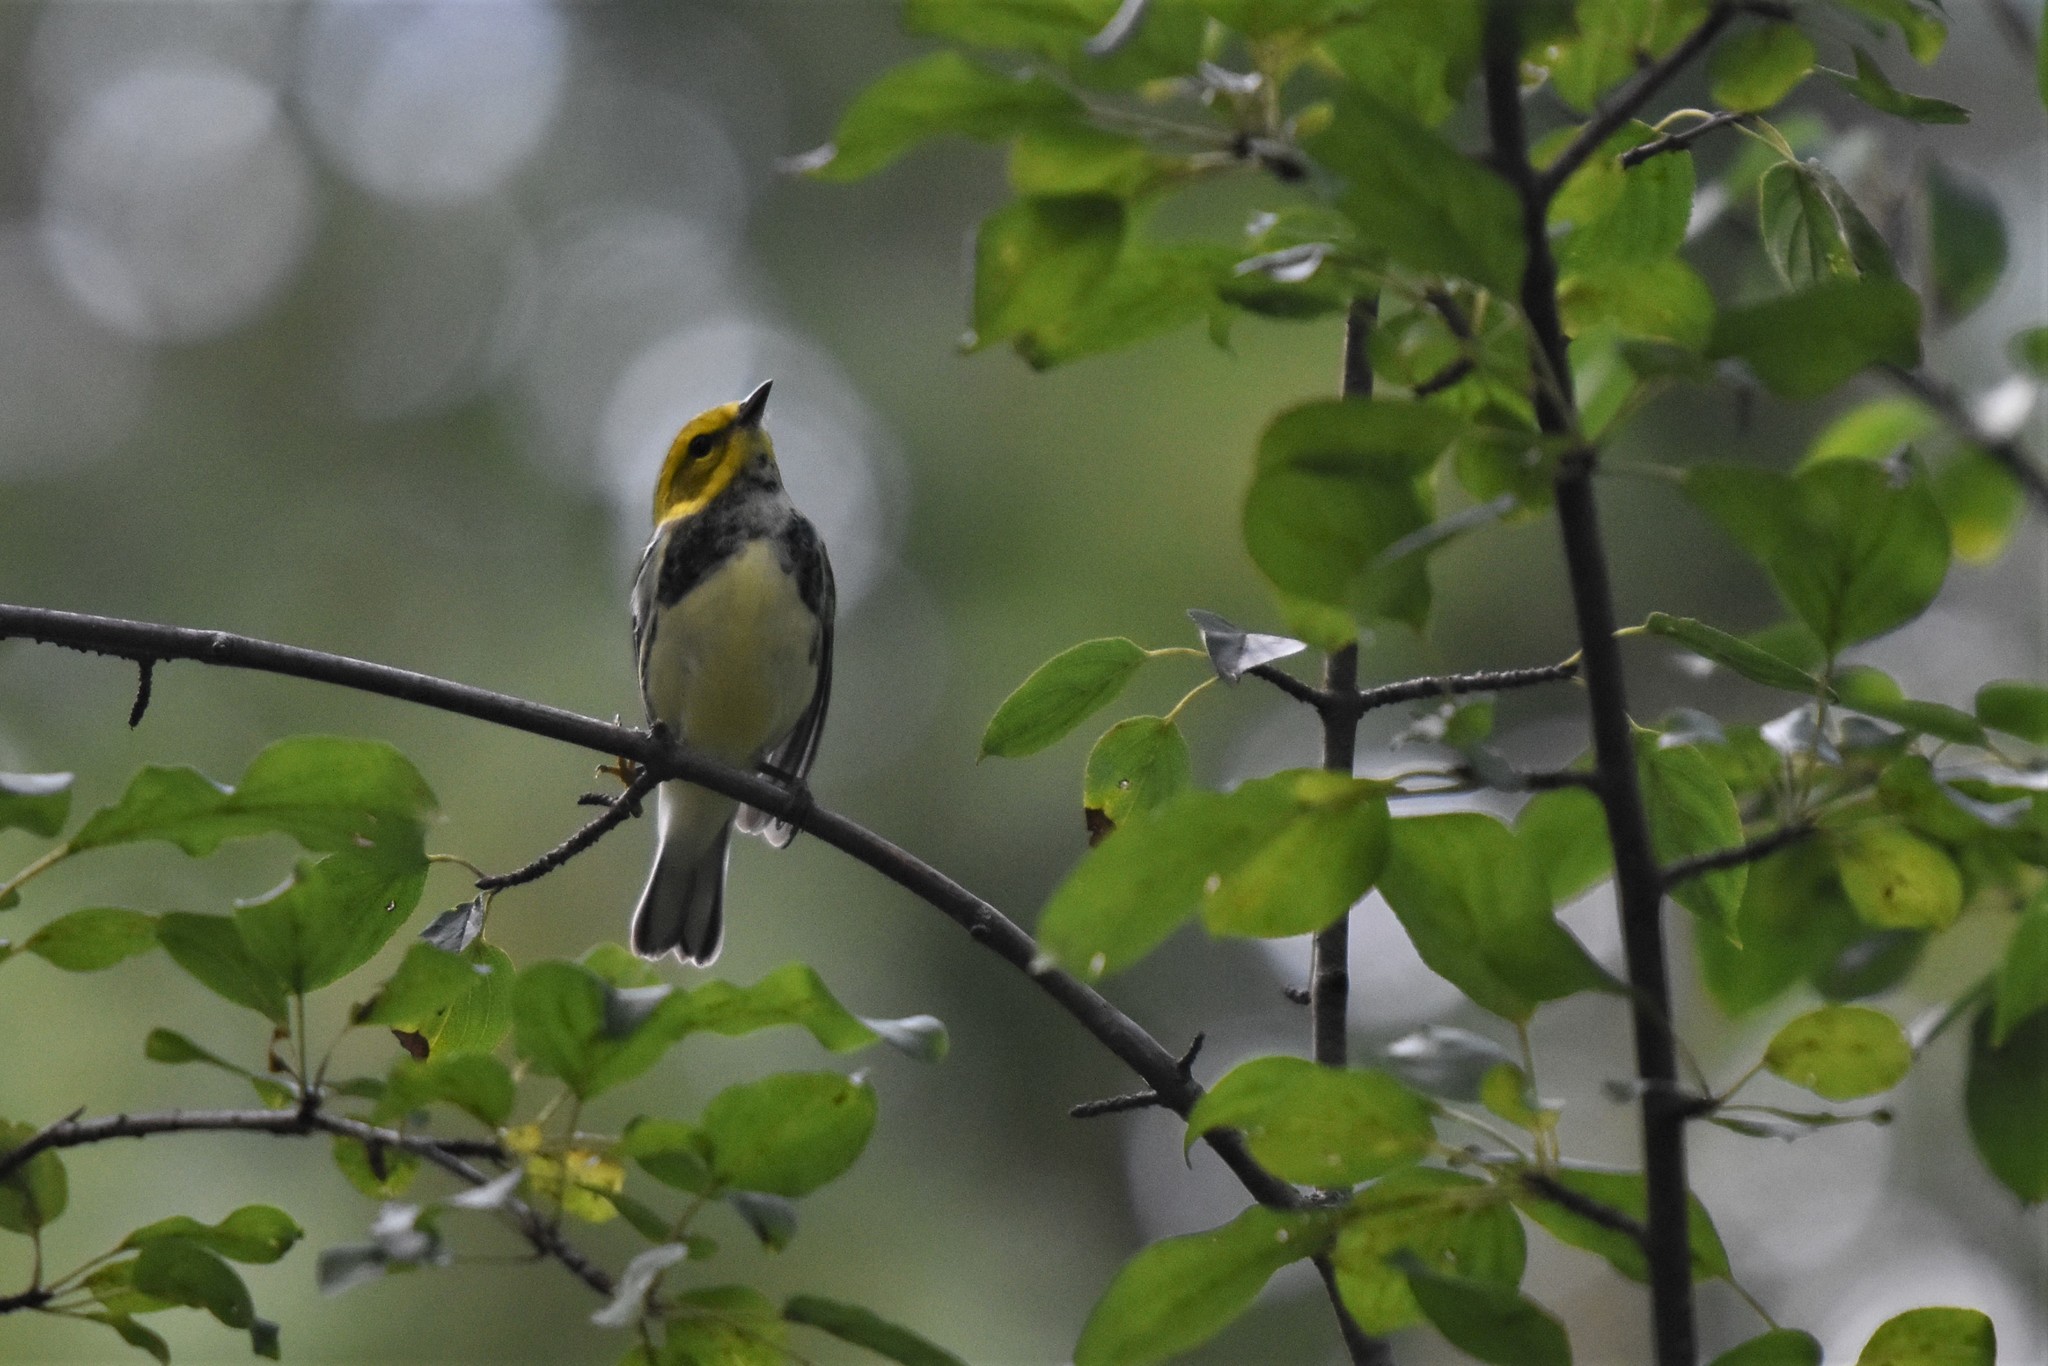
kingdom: Animalia
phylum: Chordata
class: Aves
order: Passeriformes
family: Parulidae
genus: Setophaga
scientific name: Setophaga virens
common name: Black-throated green warbler
